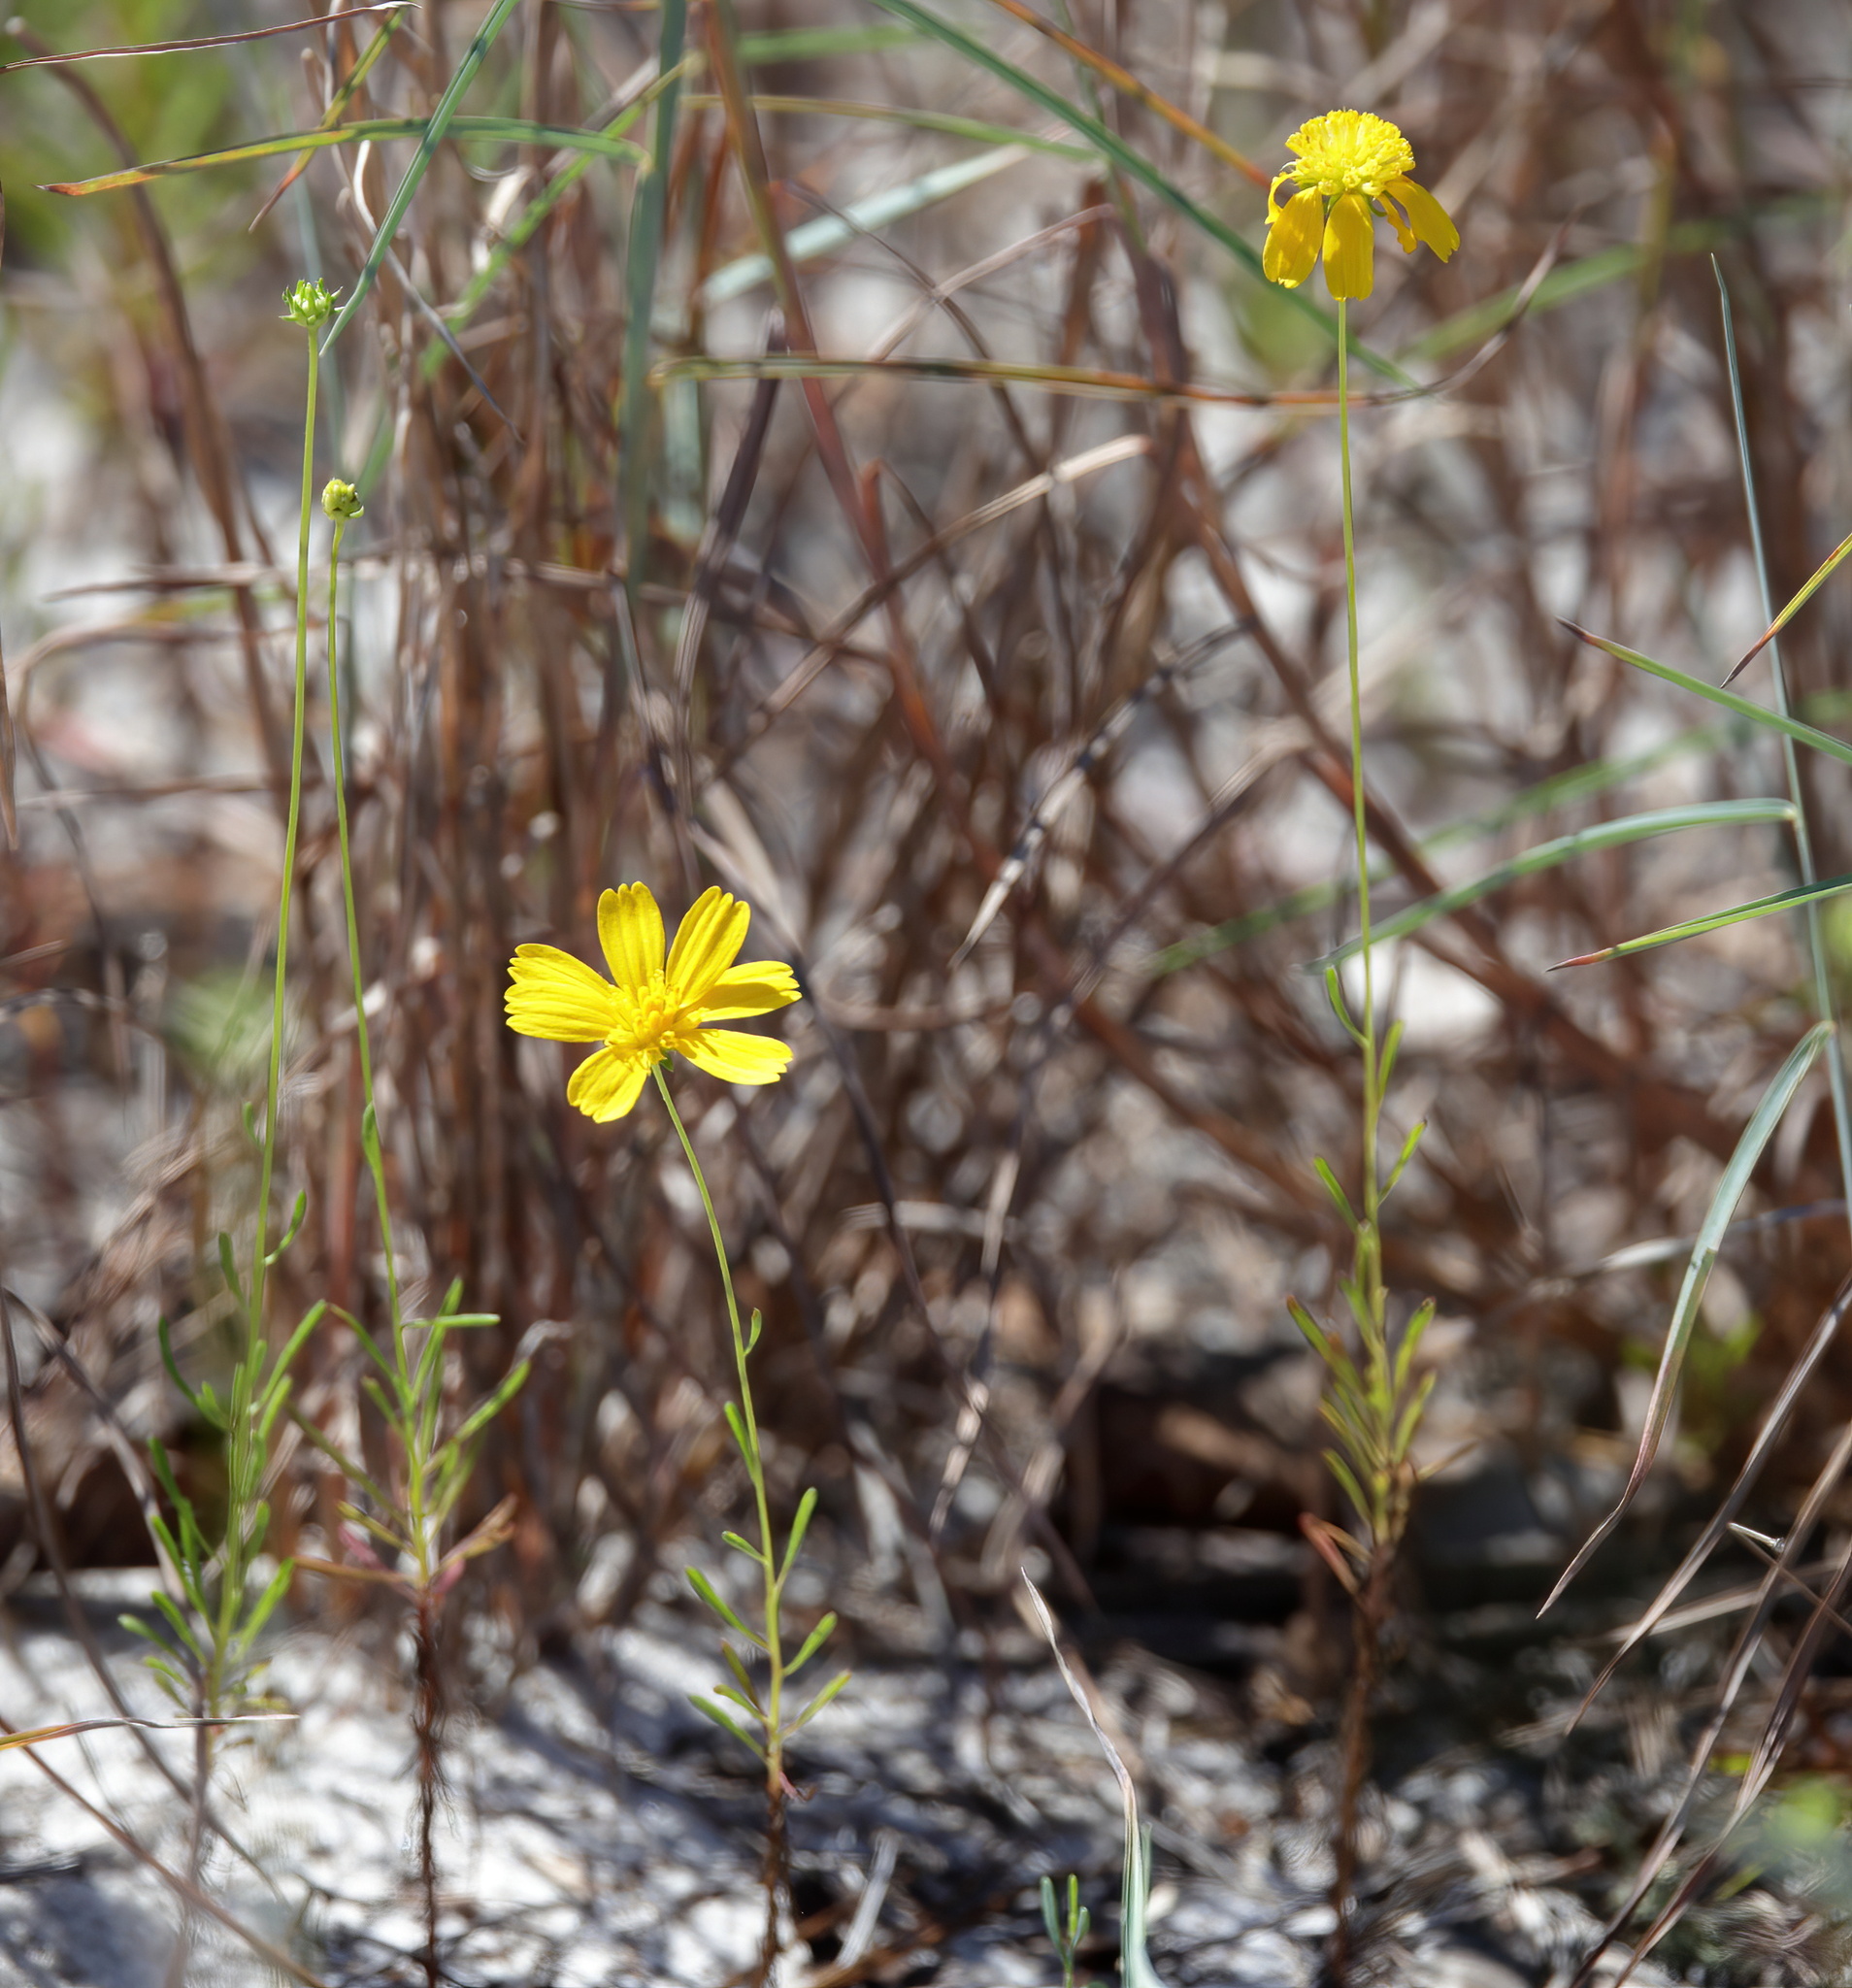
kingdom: Plantae
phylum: Tracheophyta
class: Magnoliopsida
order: Asterales
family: Asteraceae
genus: Balduina
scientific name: Balduina angustifolia
